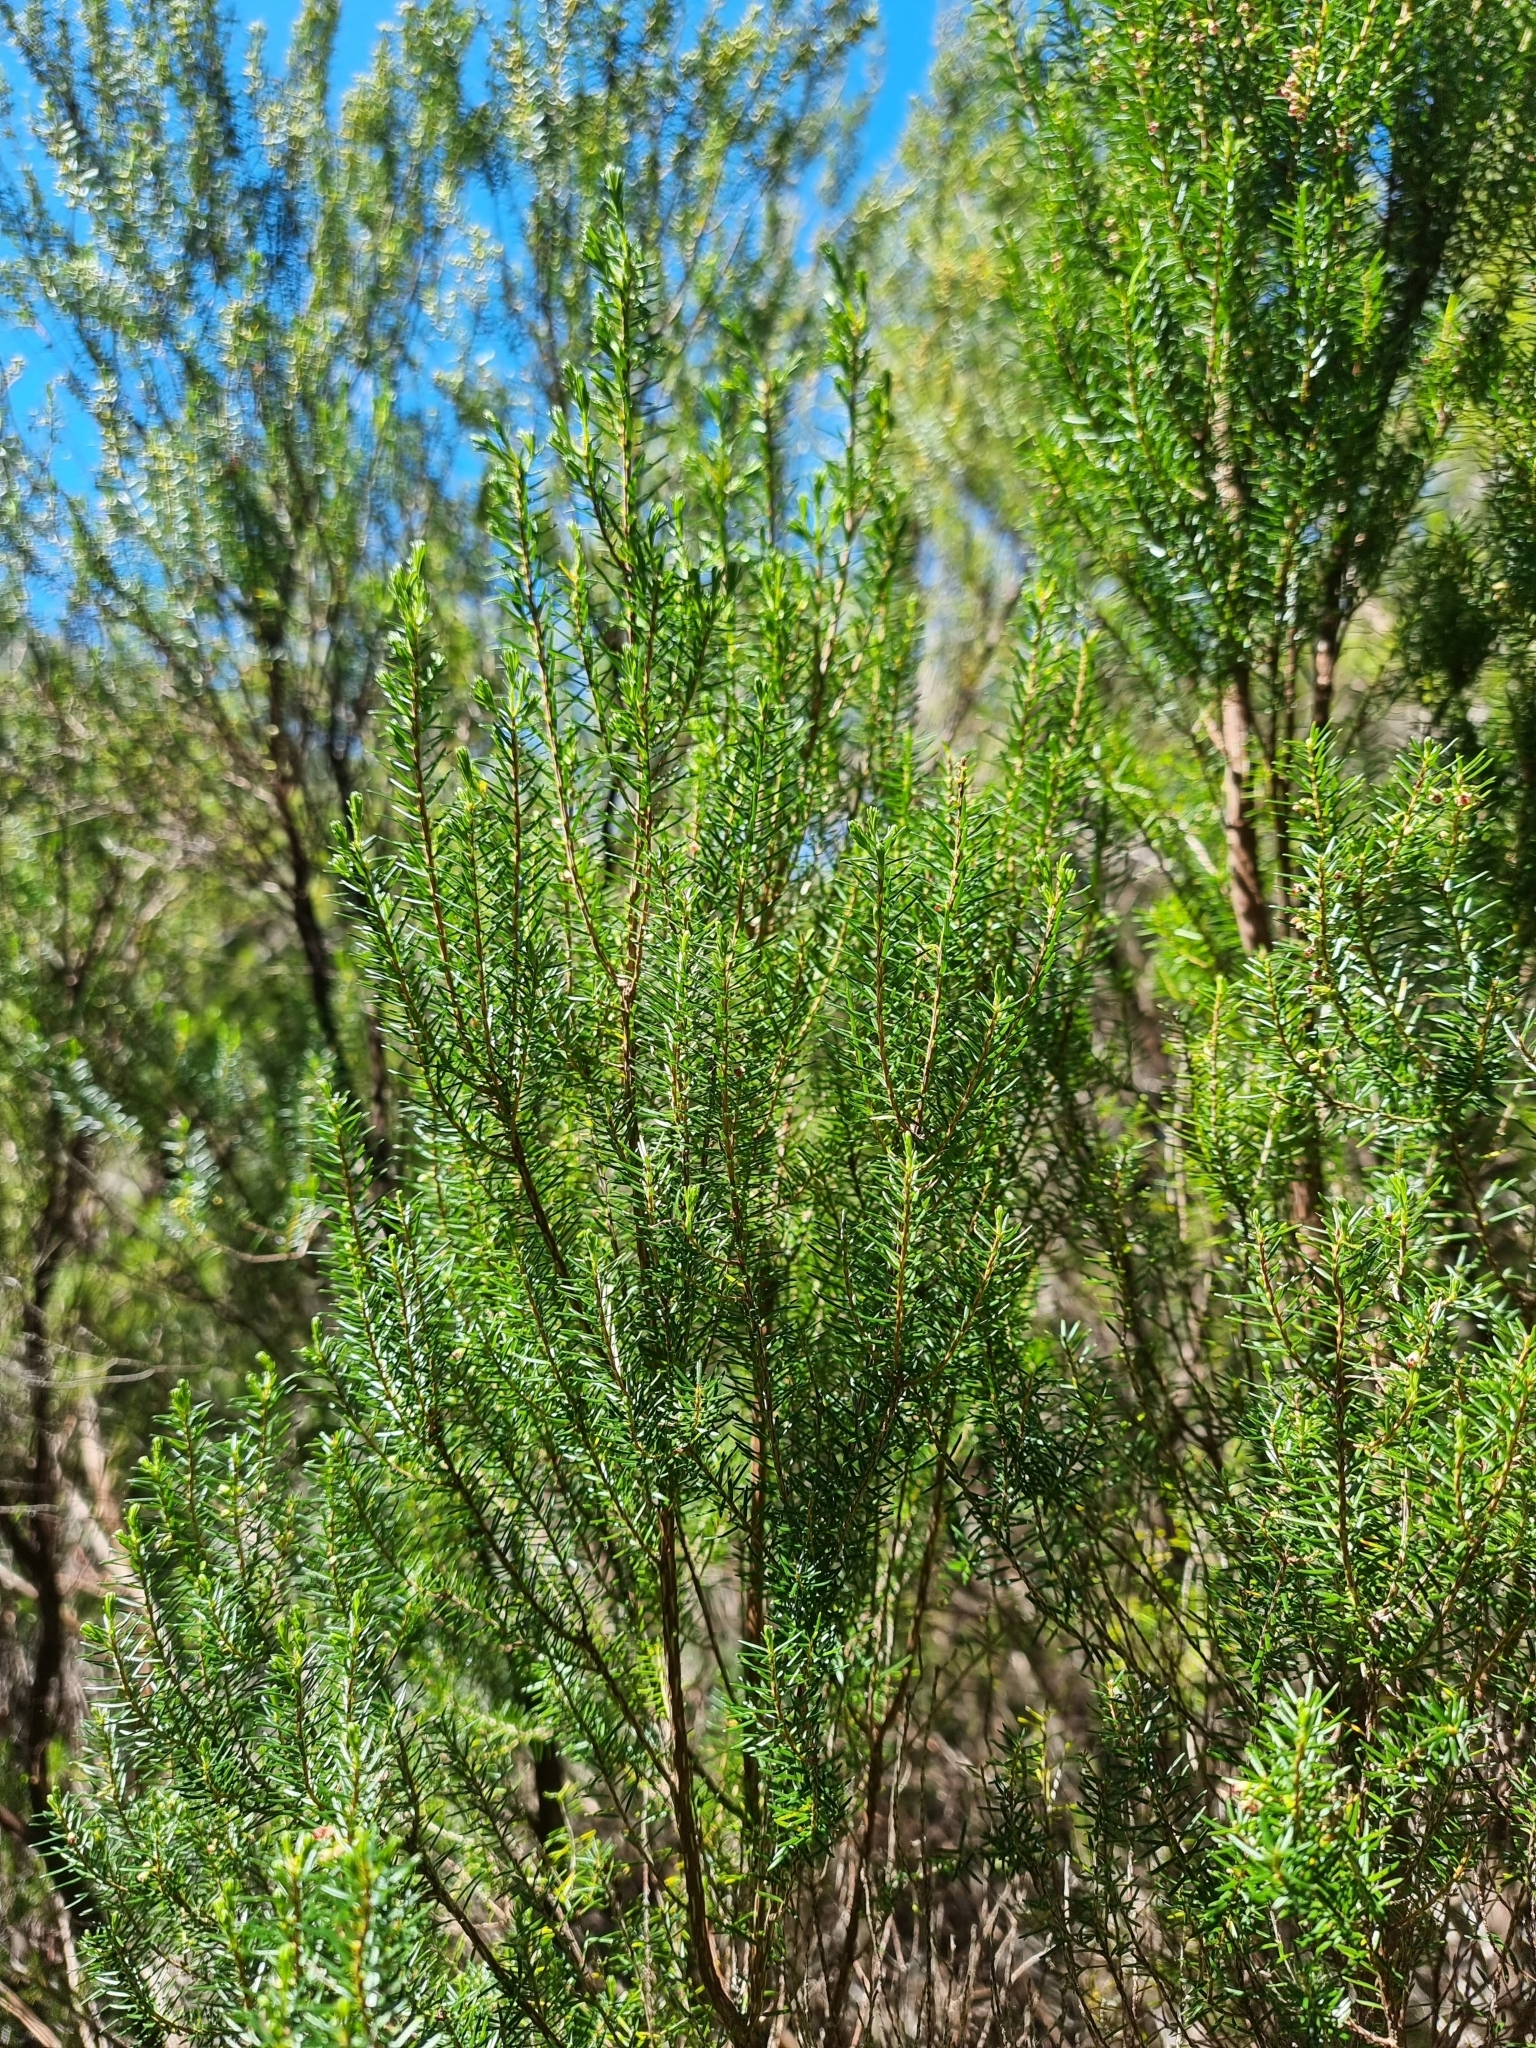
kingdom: Plantae
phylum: Tracheophyta
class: Magnoliopsida
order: Ericales
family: Ericaceae
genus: Erica
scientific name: Erica platycodon
